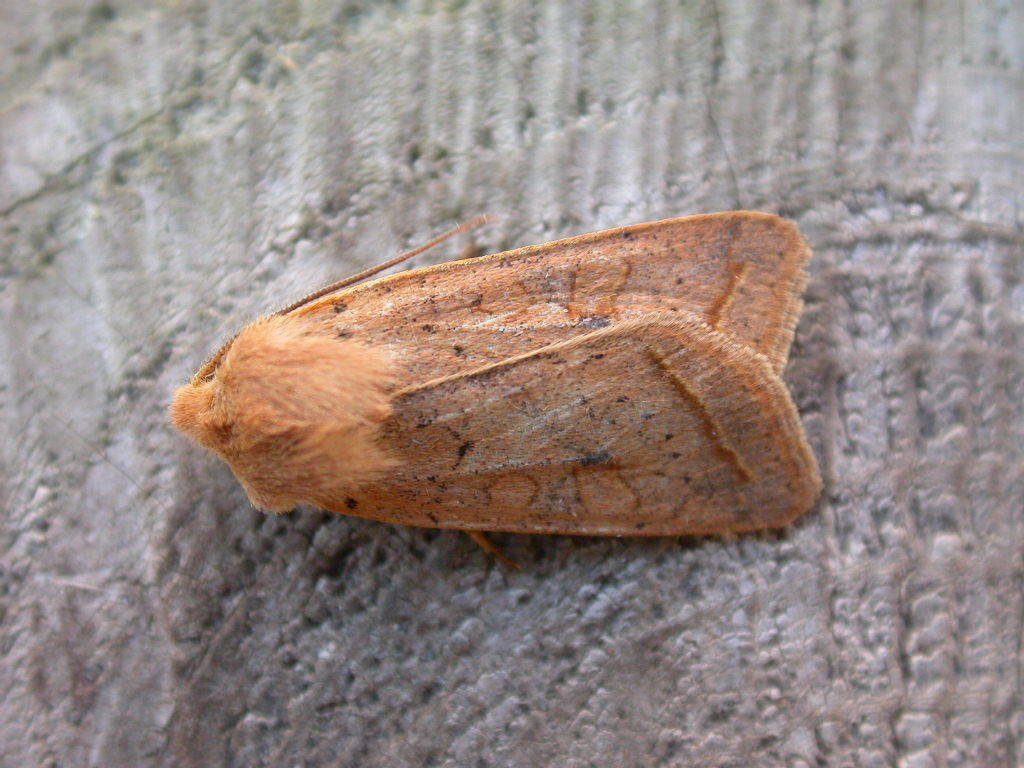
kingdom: Animalia
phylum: Arthropoda
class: Insecta
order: Lepidoptera
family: Noctuidae
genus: Agrochola
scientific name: Agrochola macilenta
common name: Yellow-line quaker
